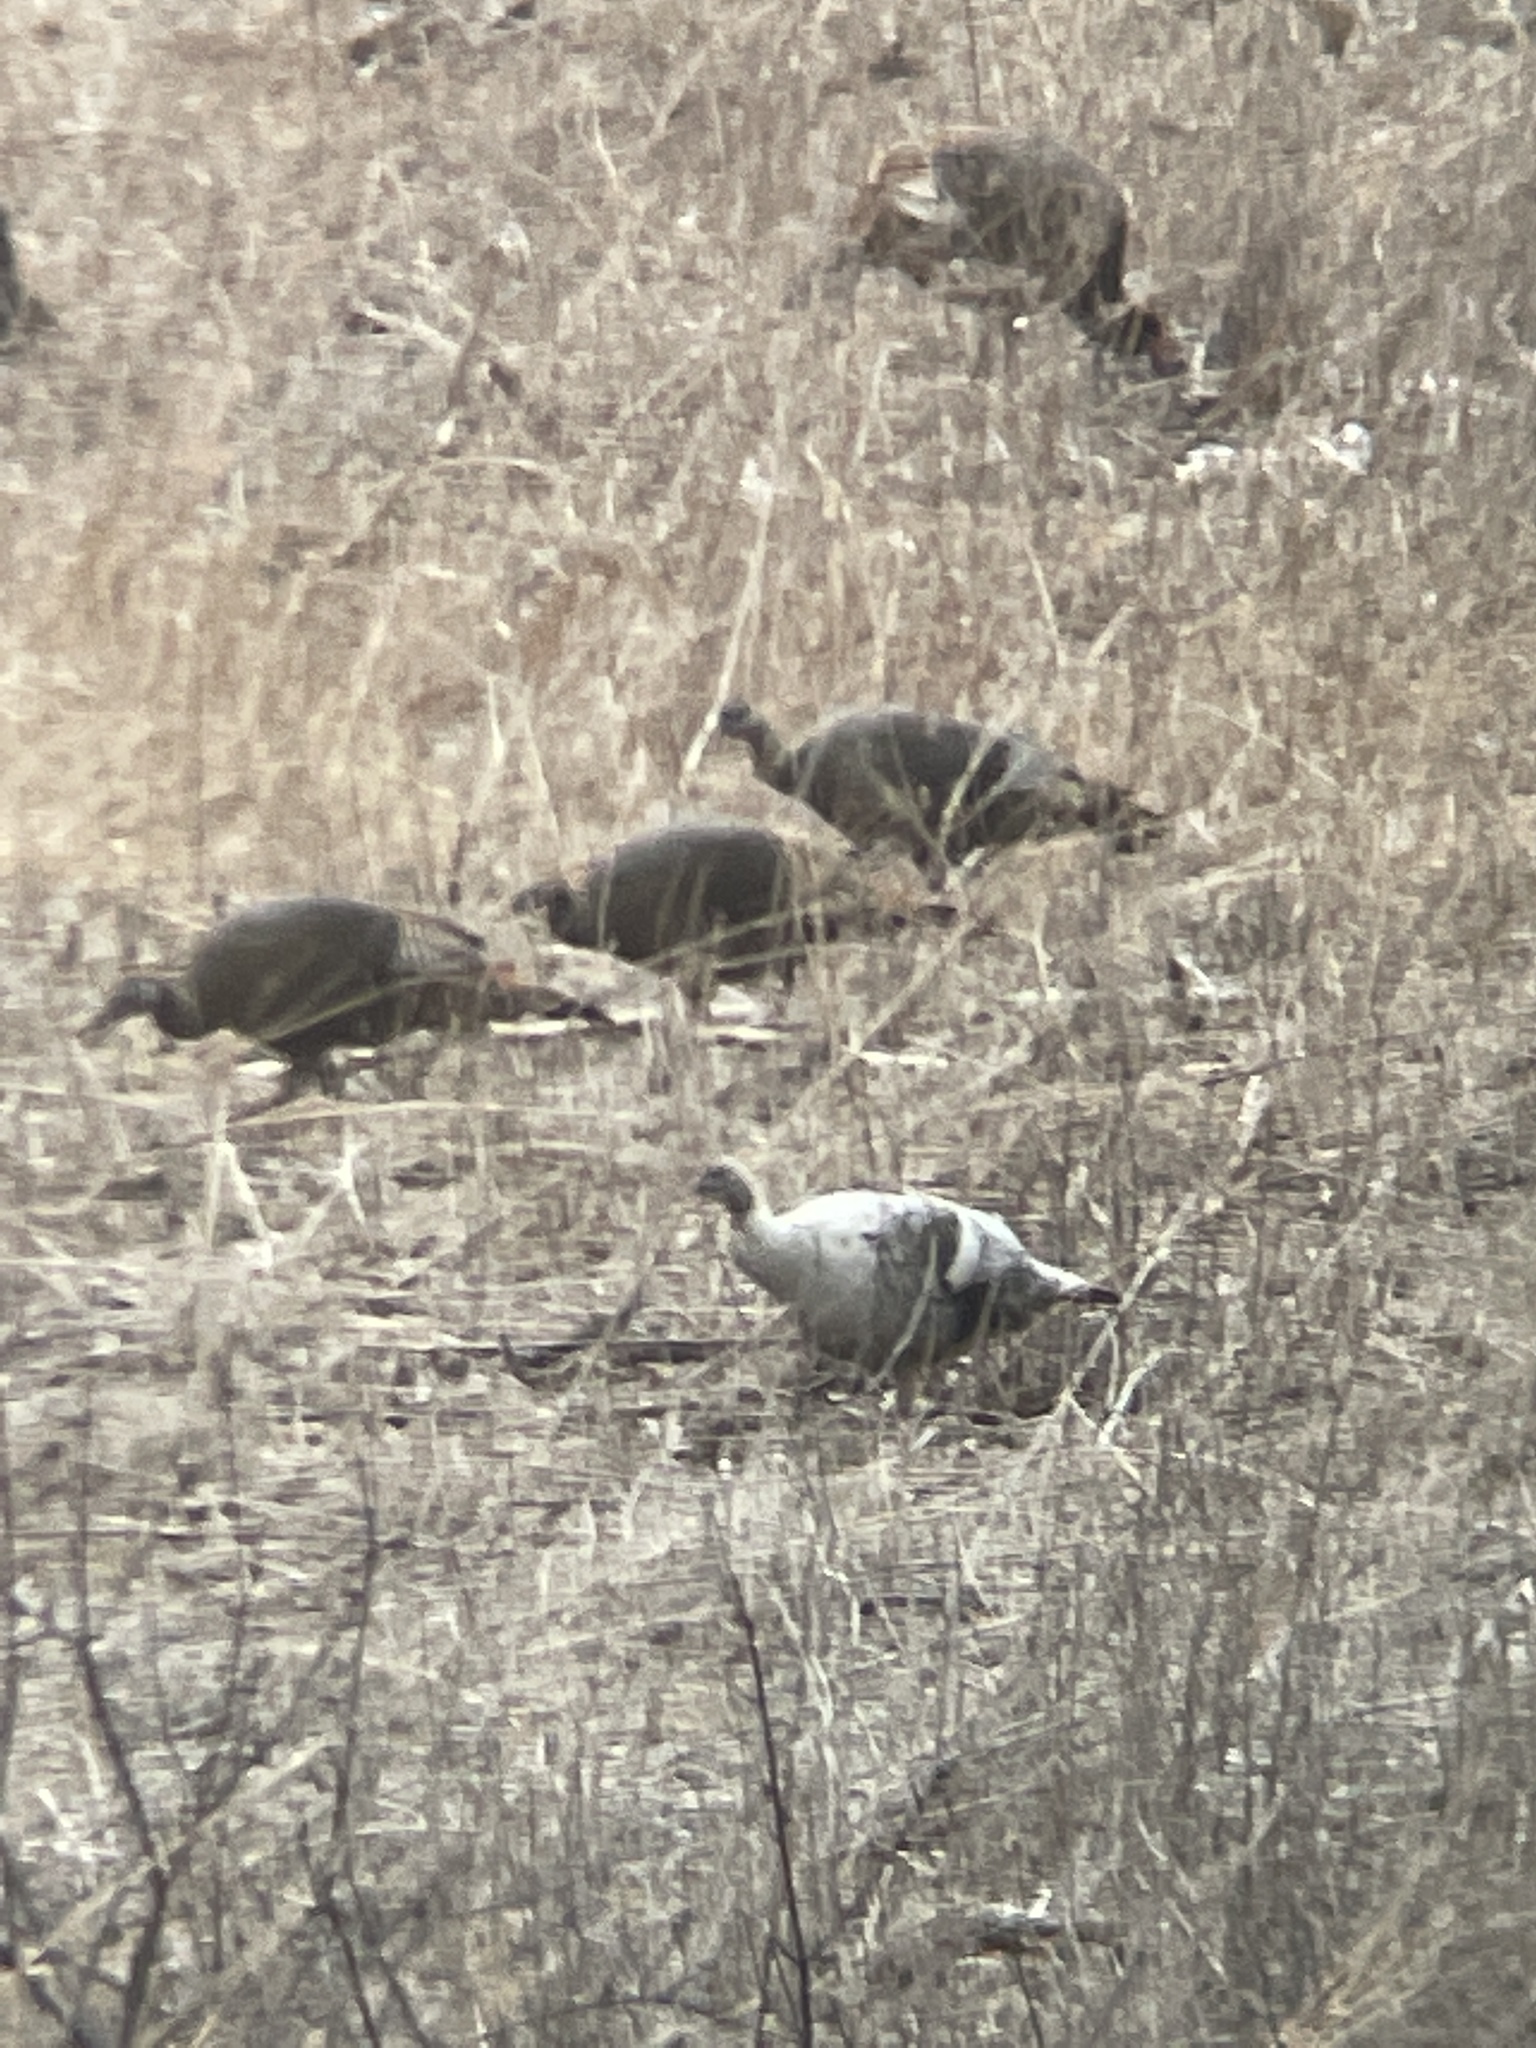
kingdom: Animalia
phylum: Chordata
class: Aves
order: Galliformes
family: Phasianidae
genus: Meleagris
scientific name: Meleagris gallopavo
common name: Wild turkey
